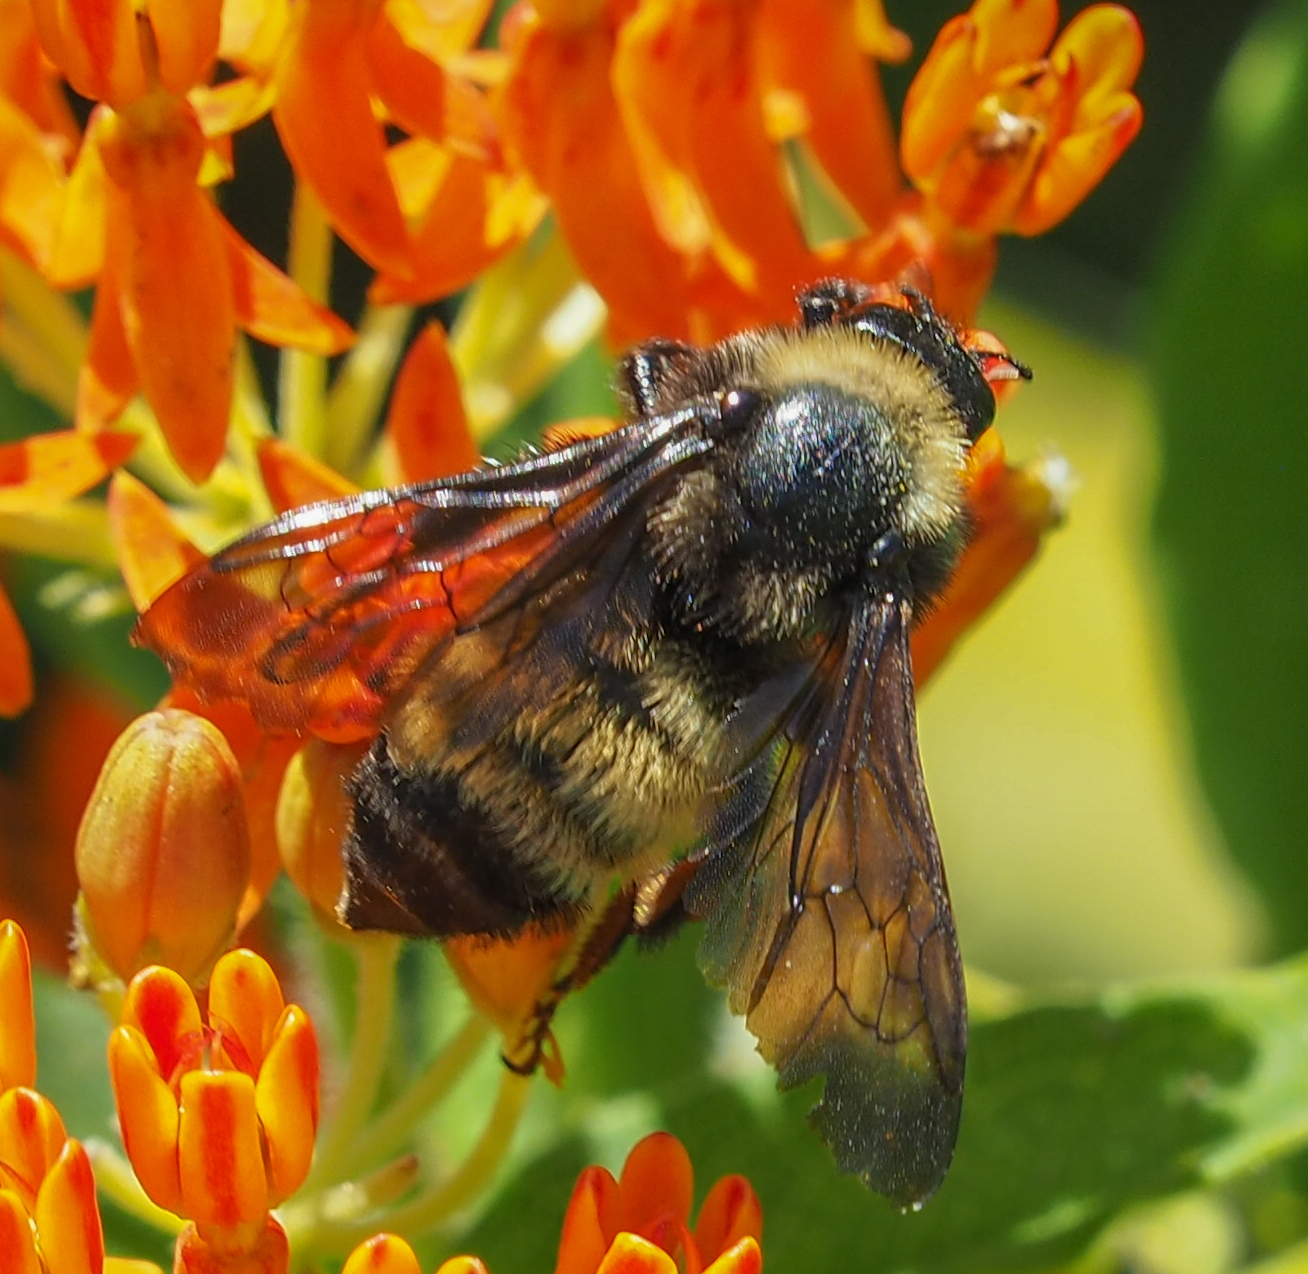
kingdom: Animalia
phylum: Arthropoda
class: Insecta
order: Hymenoptera
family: Apidae
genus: Bombus
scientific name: Bombus pensylvanicus
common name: Bumble bee
